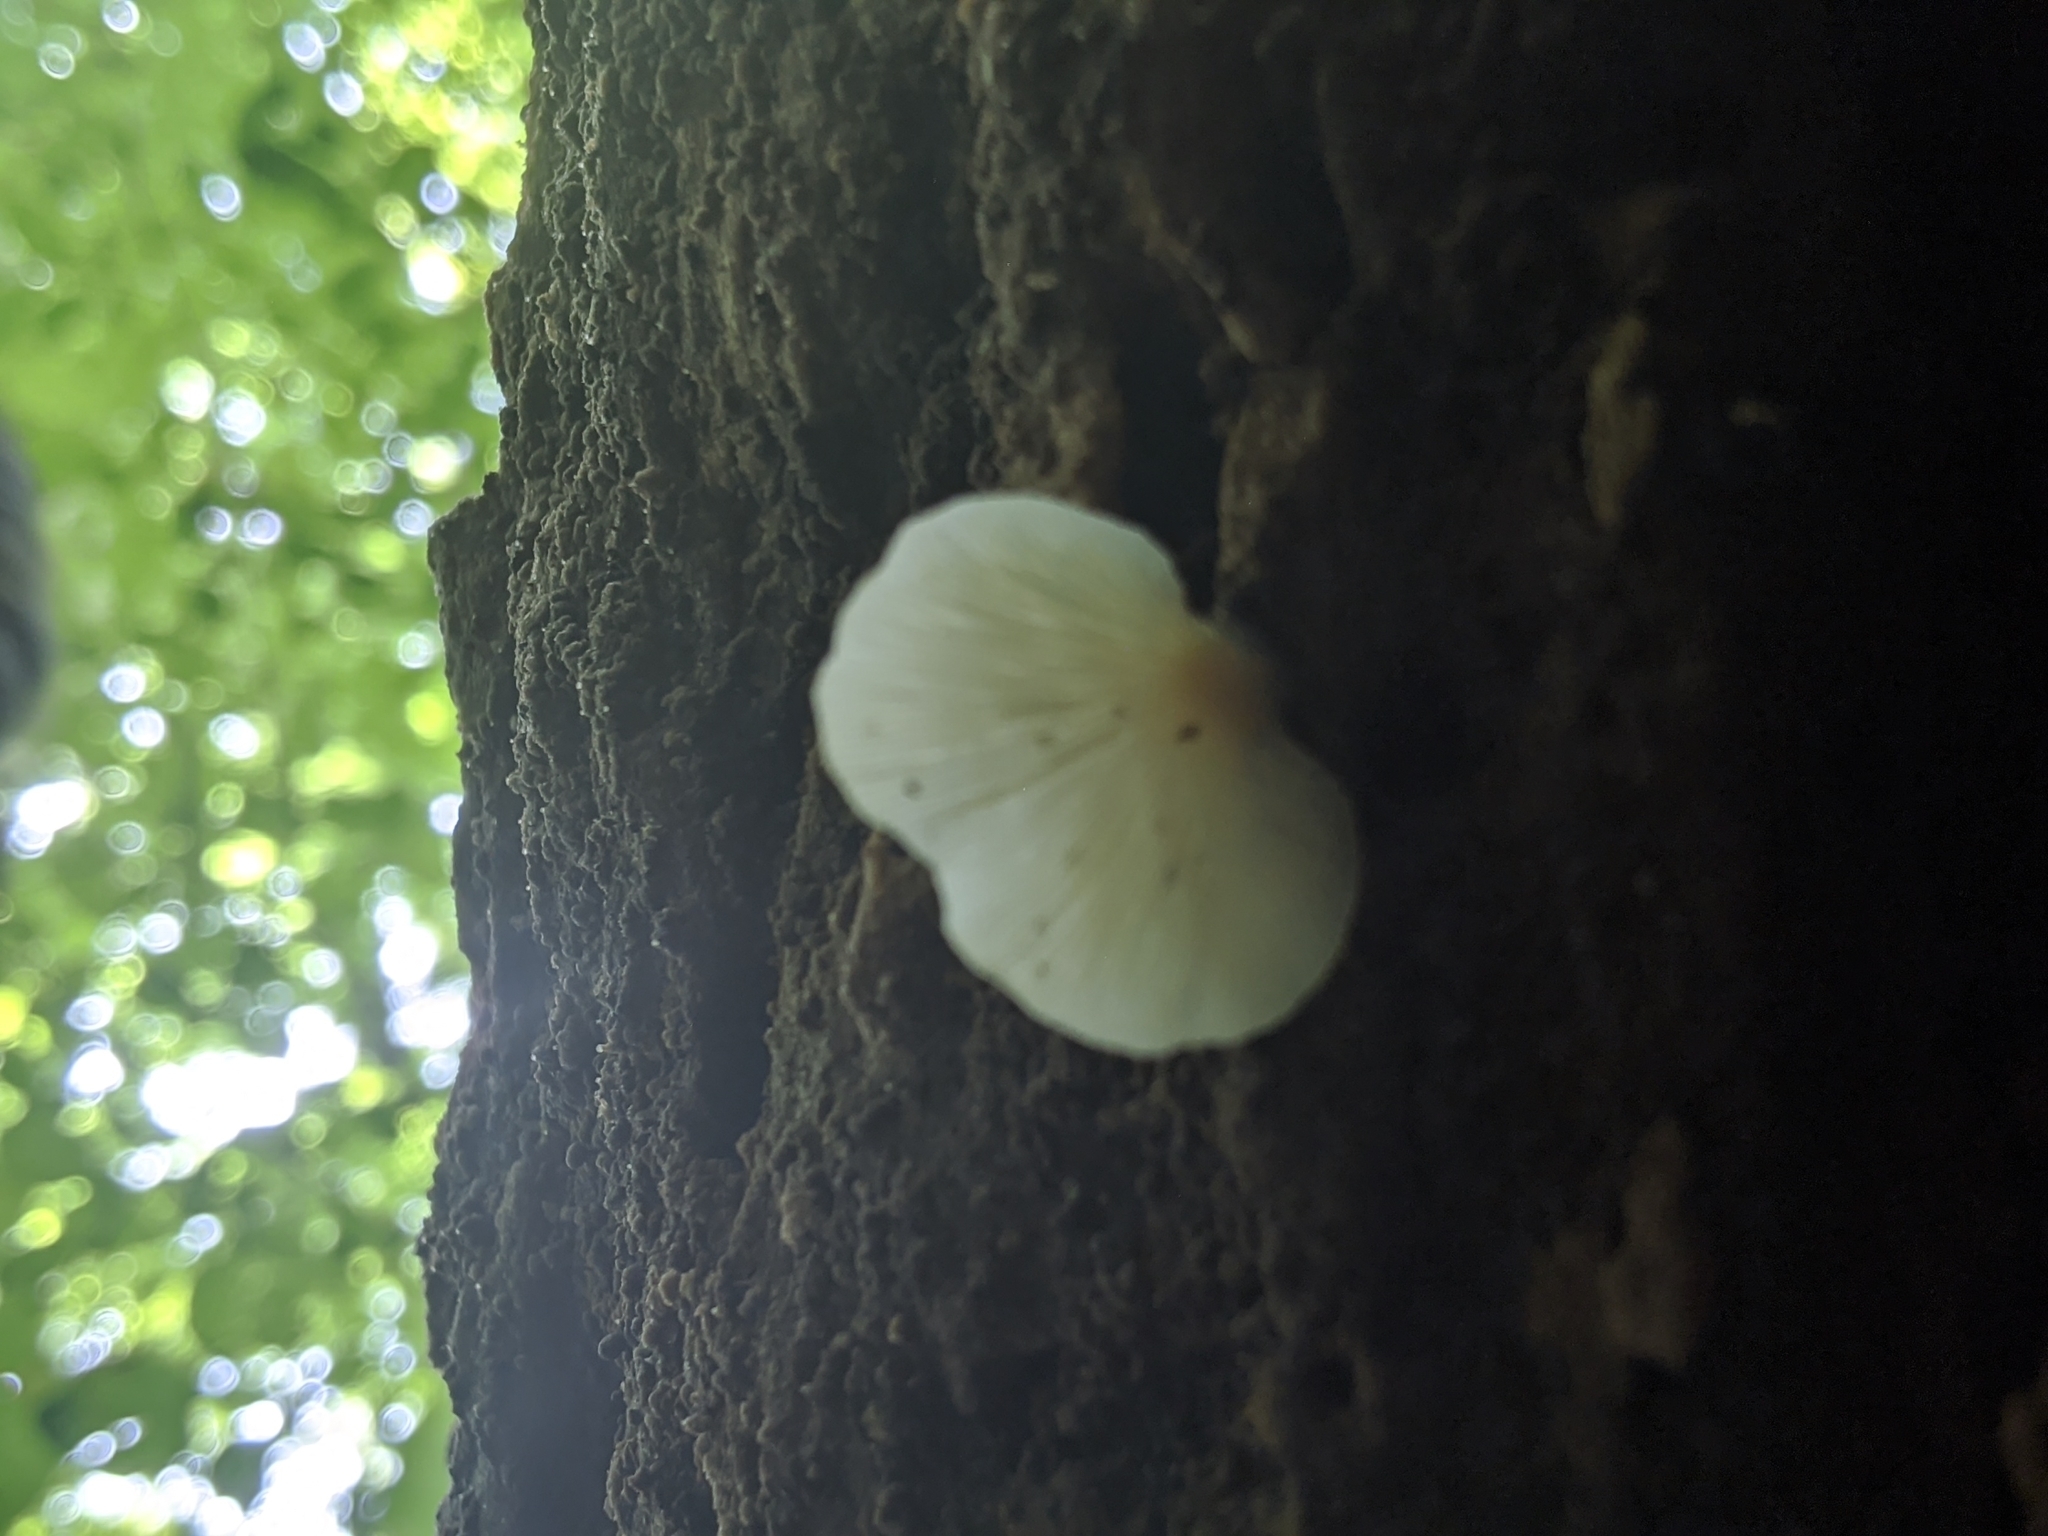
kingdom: Fungi
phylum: Basidiomycota
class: Agaricomycetes
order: Agaricales
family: Pleurotaceae
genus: Hohenbuehelia
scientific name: Hohenbuehelia angustata
